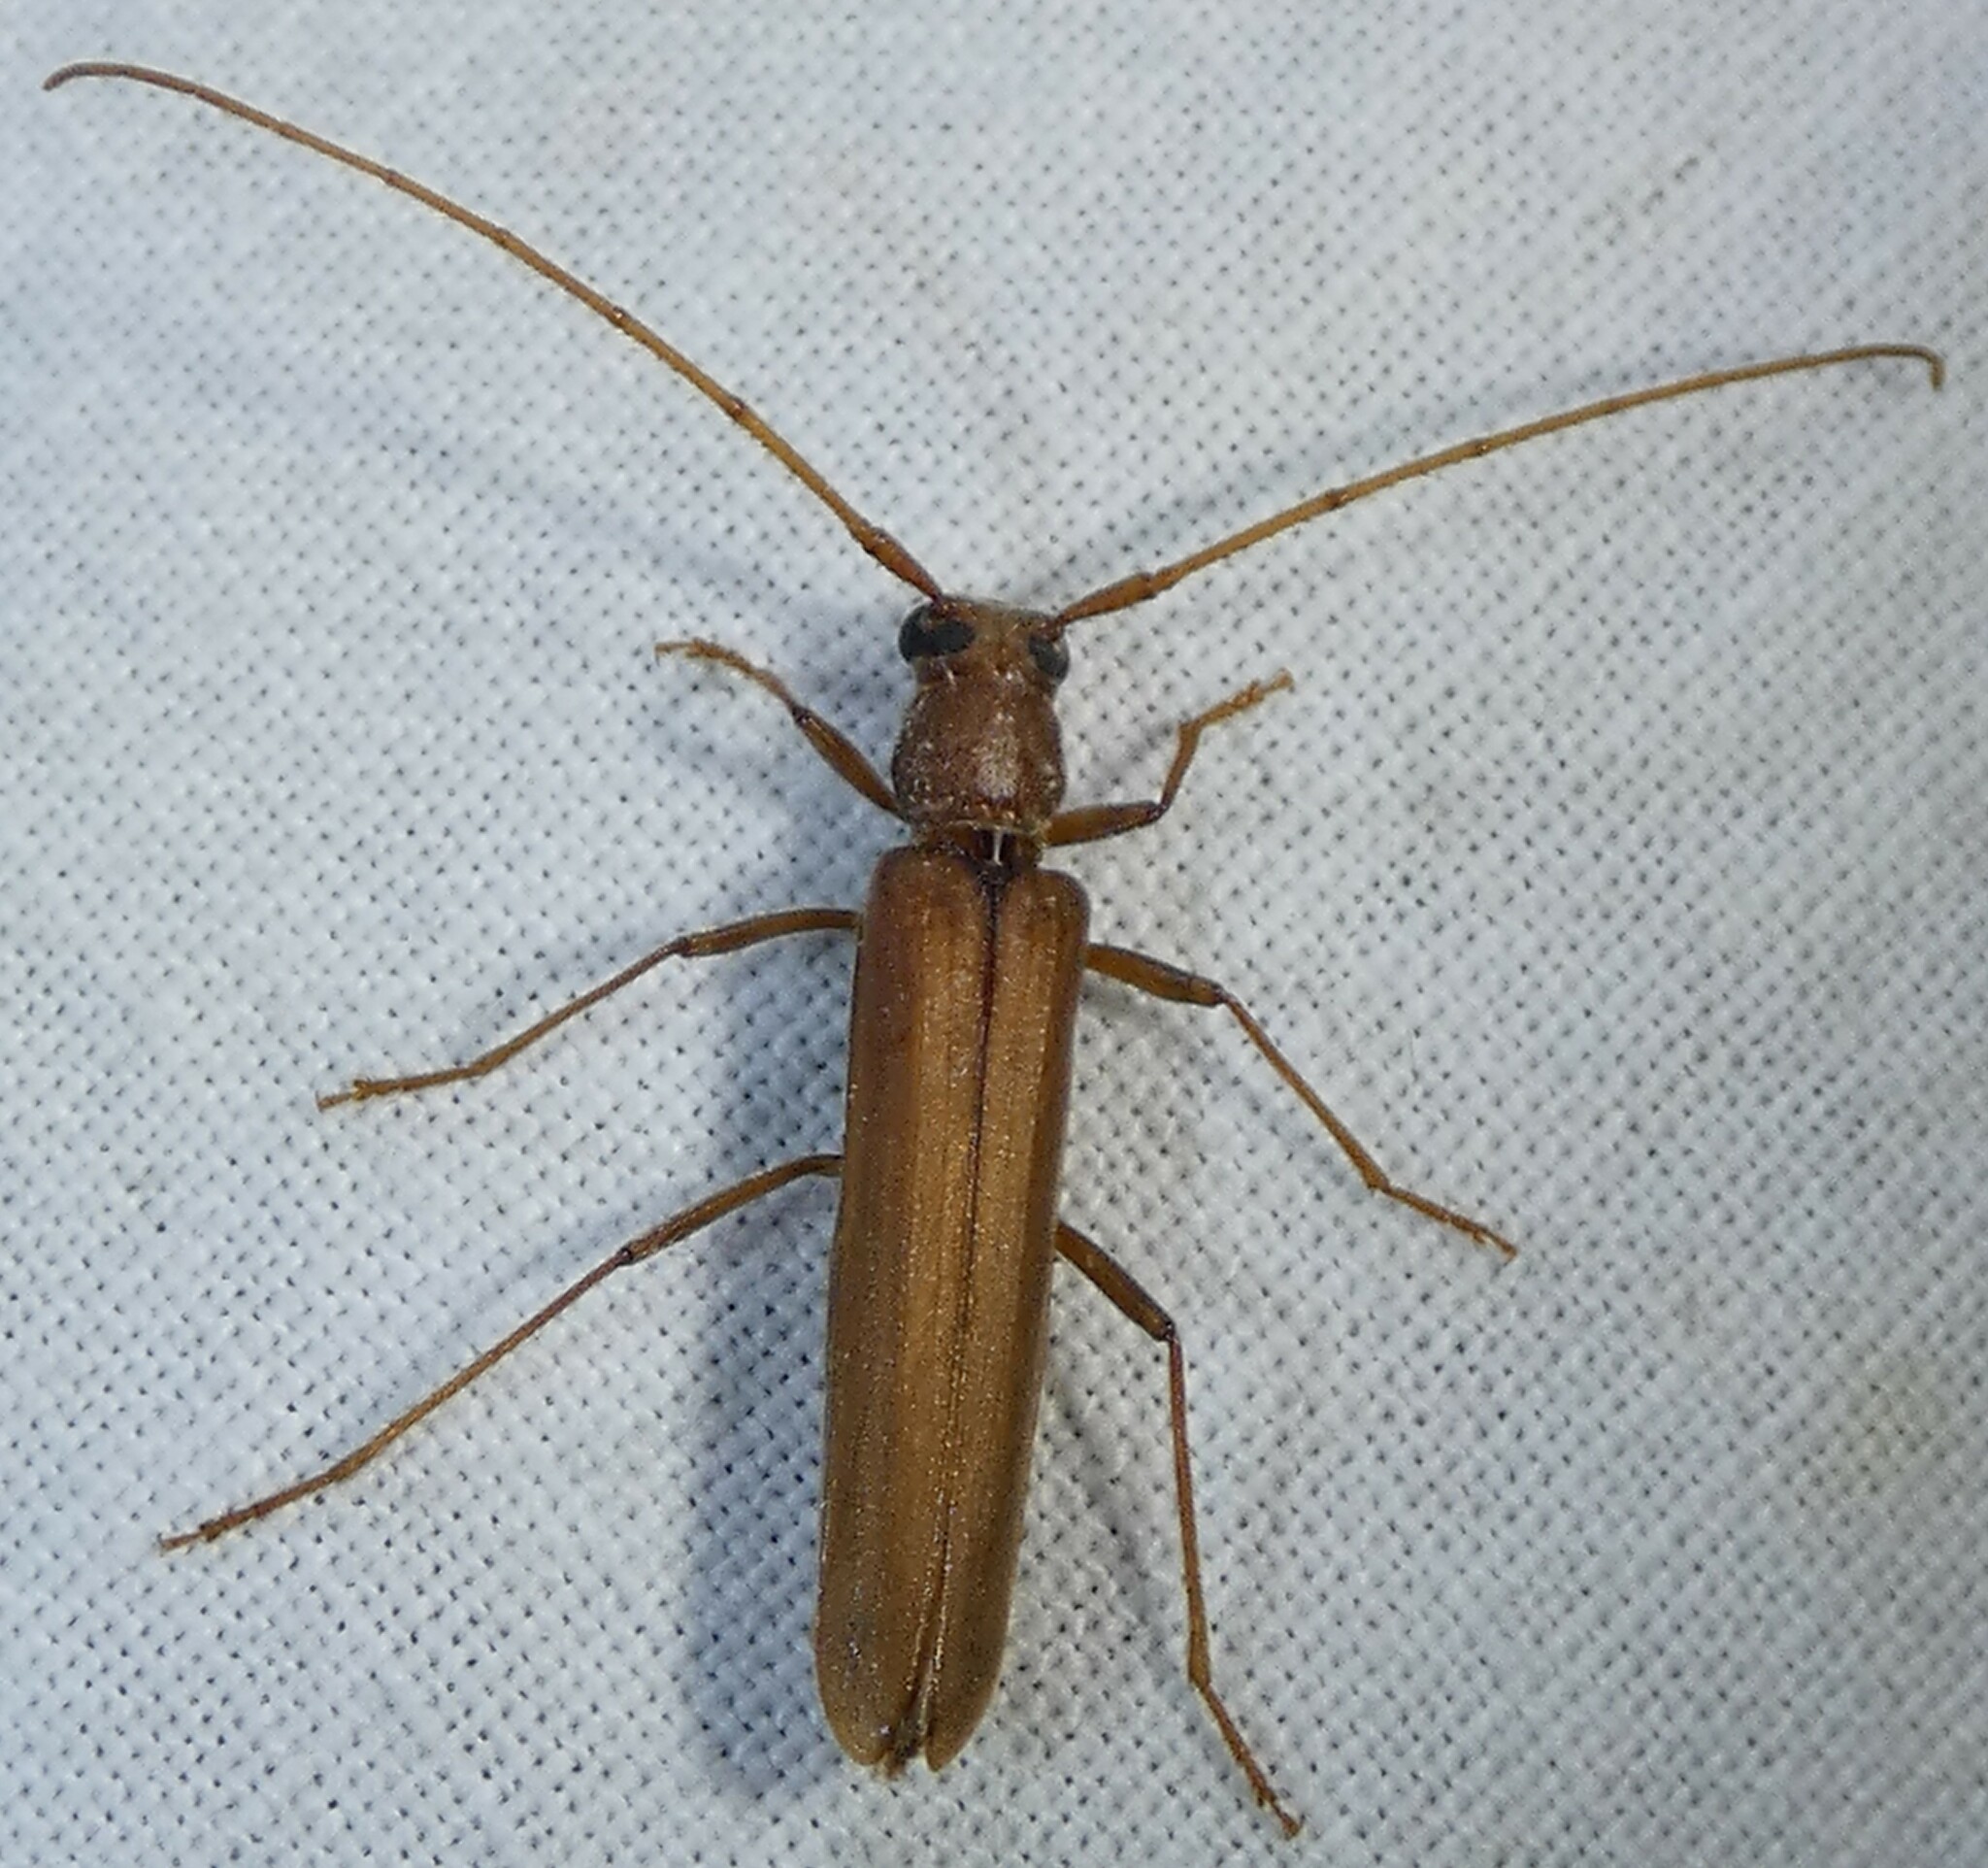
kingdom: Animalia
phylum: Arthropoda
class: Insecta
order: Coleoptera
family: Cerambycidae
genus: Oeme
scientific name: Oeme rigida
